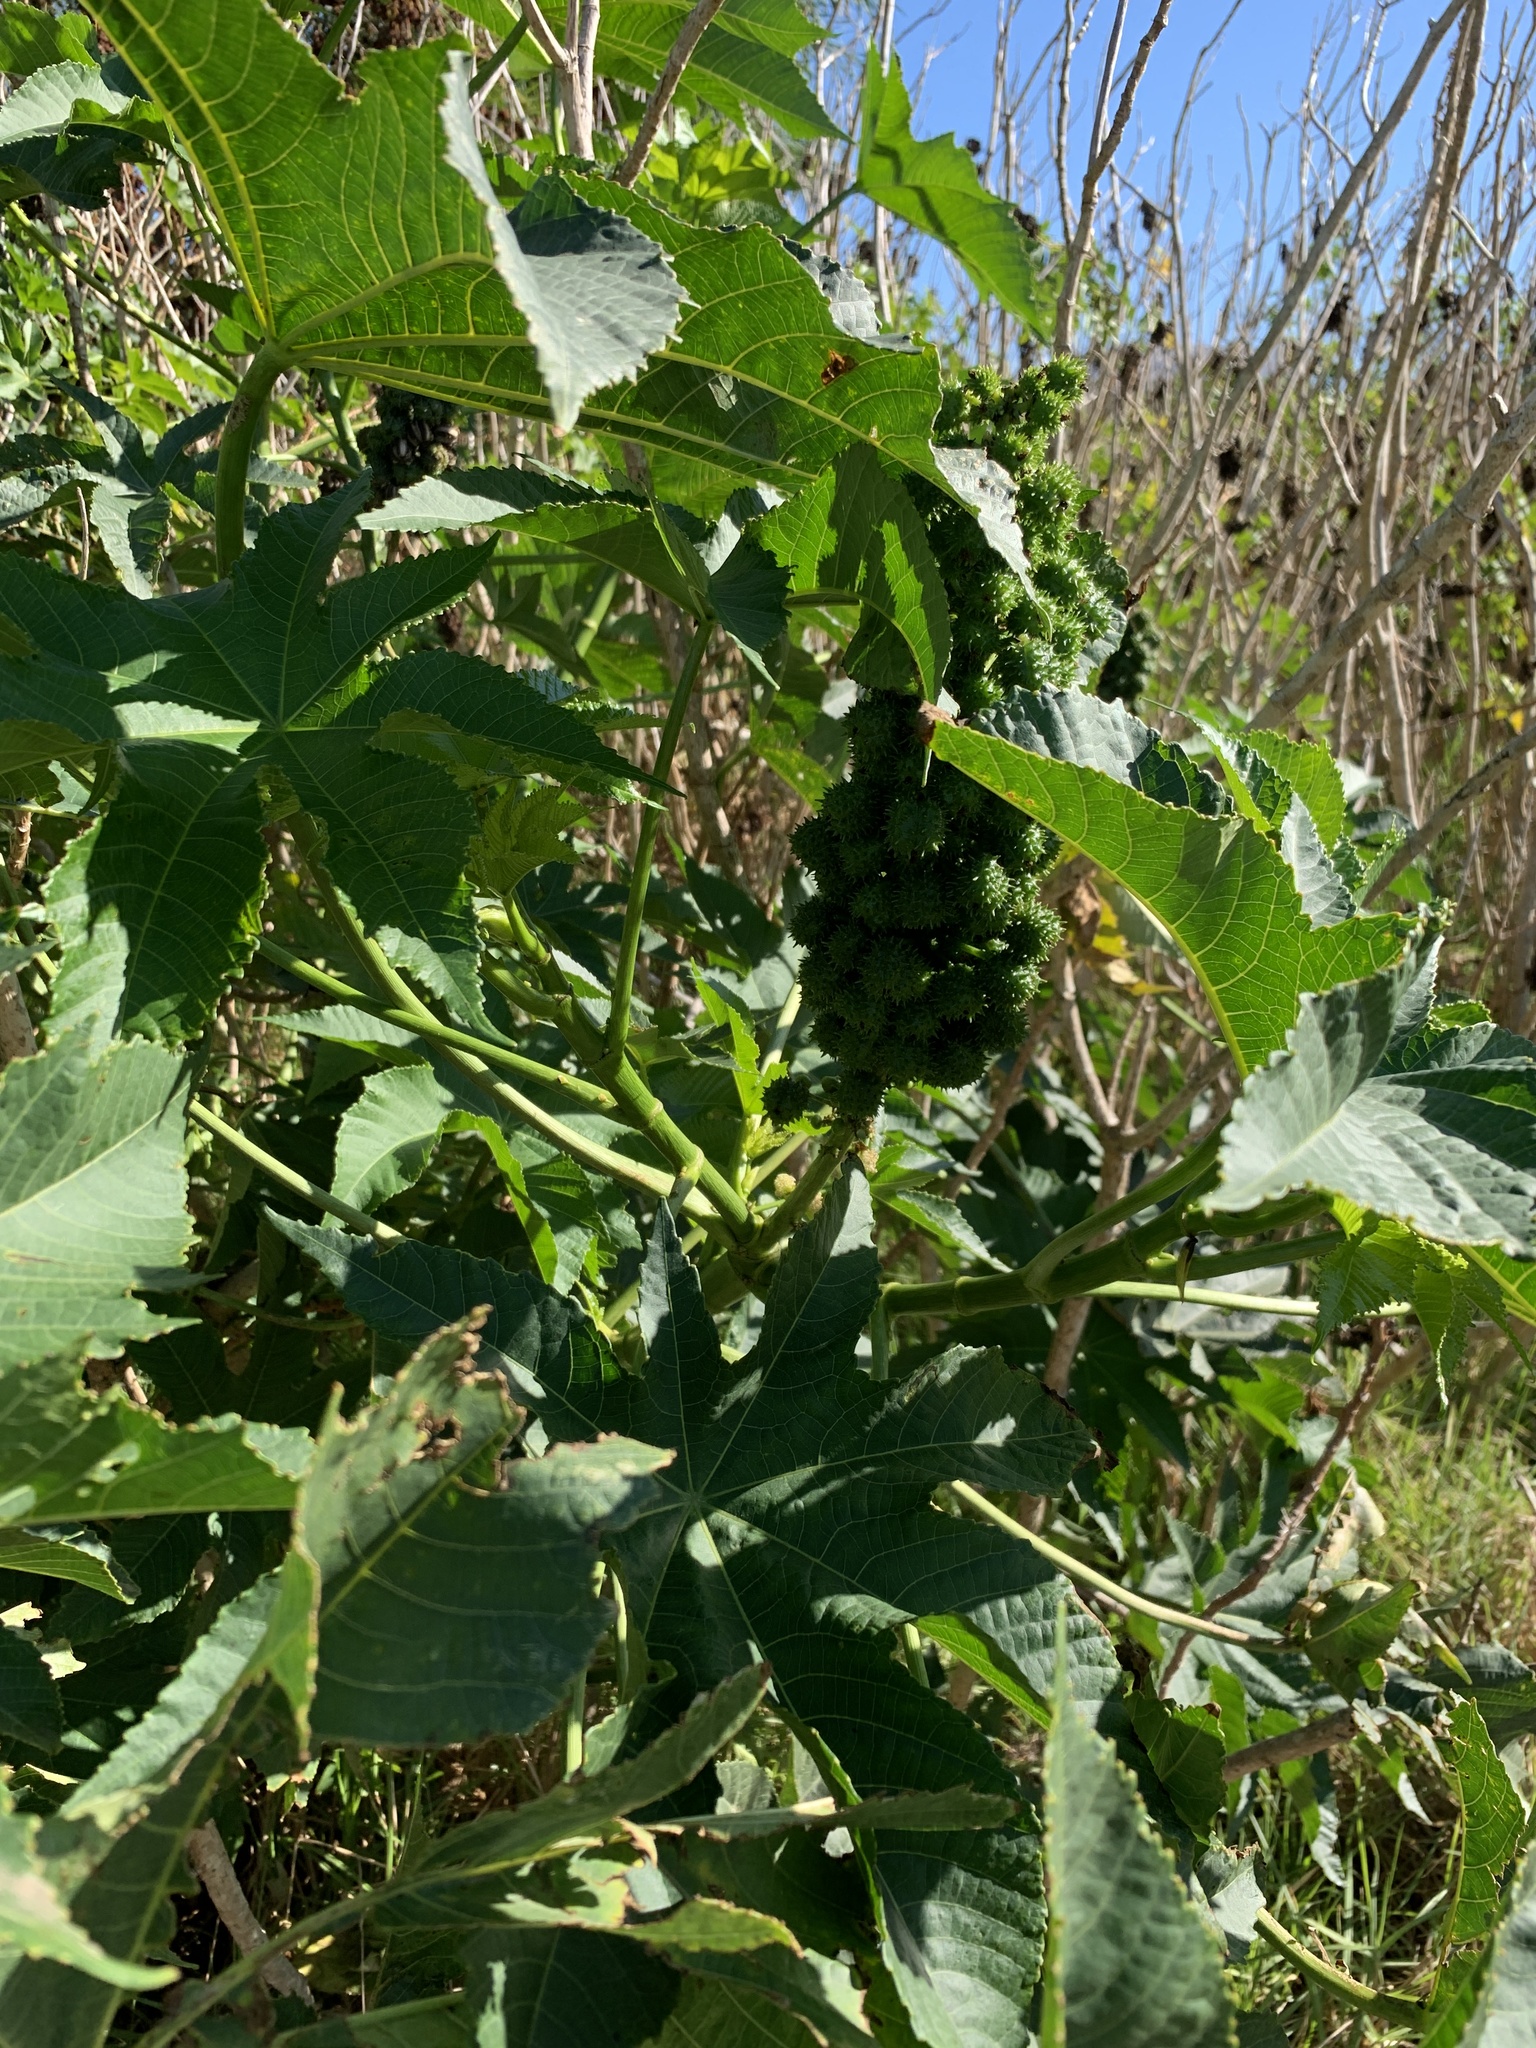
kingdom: Plantae
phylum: Tracheophyta
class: Magnoliopsida
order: Malpighiales
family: Euphorbiaceae
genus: Ricinus
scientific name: Ricinus communis
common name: Castor-oil-plant
